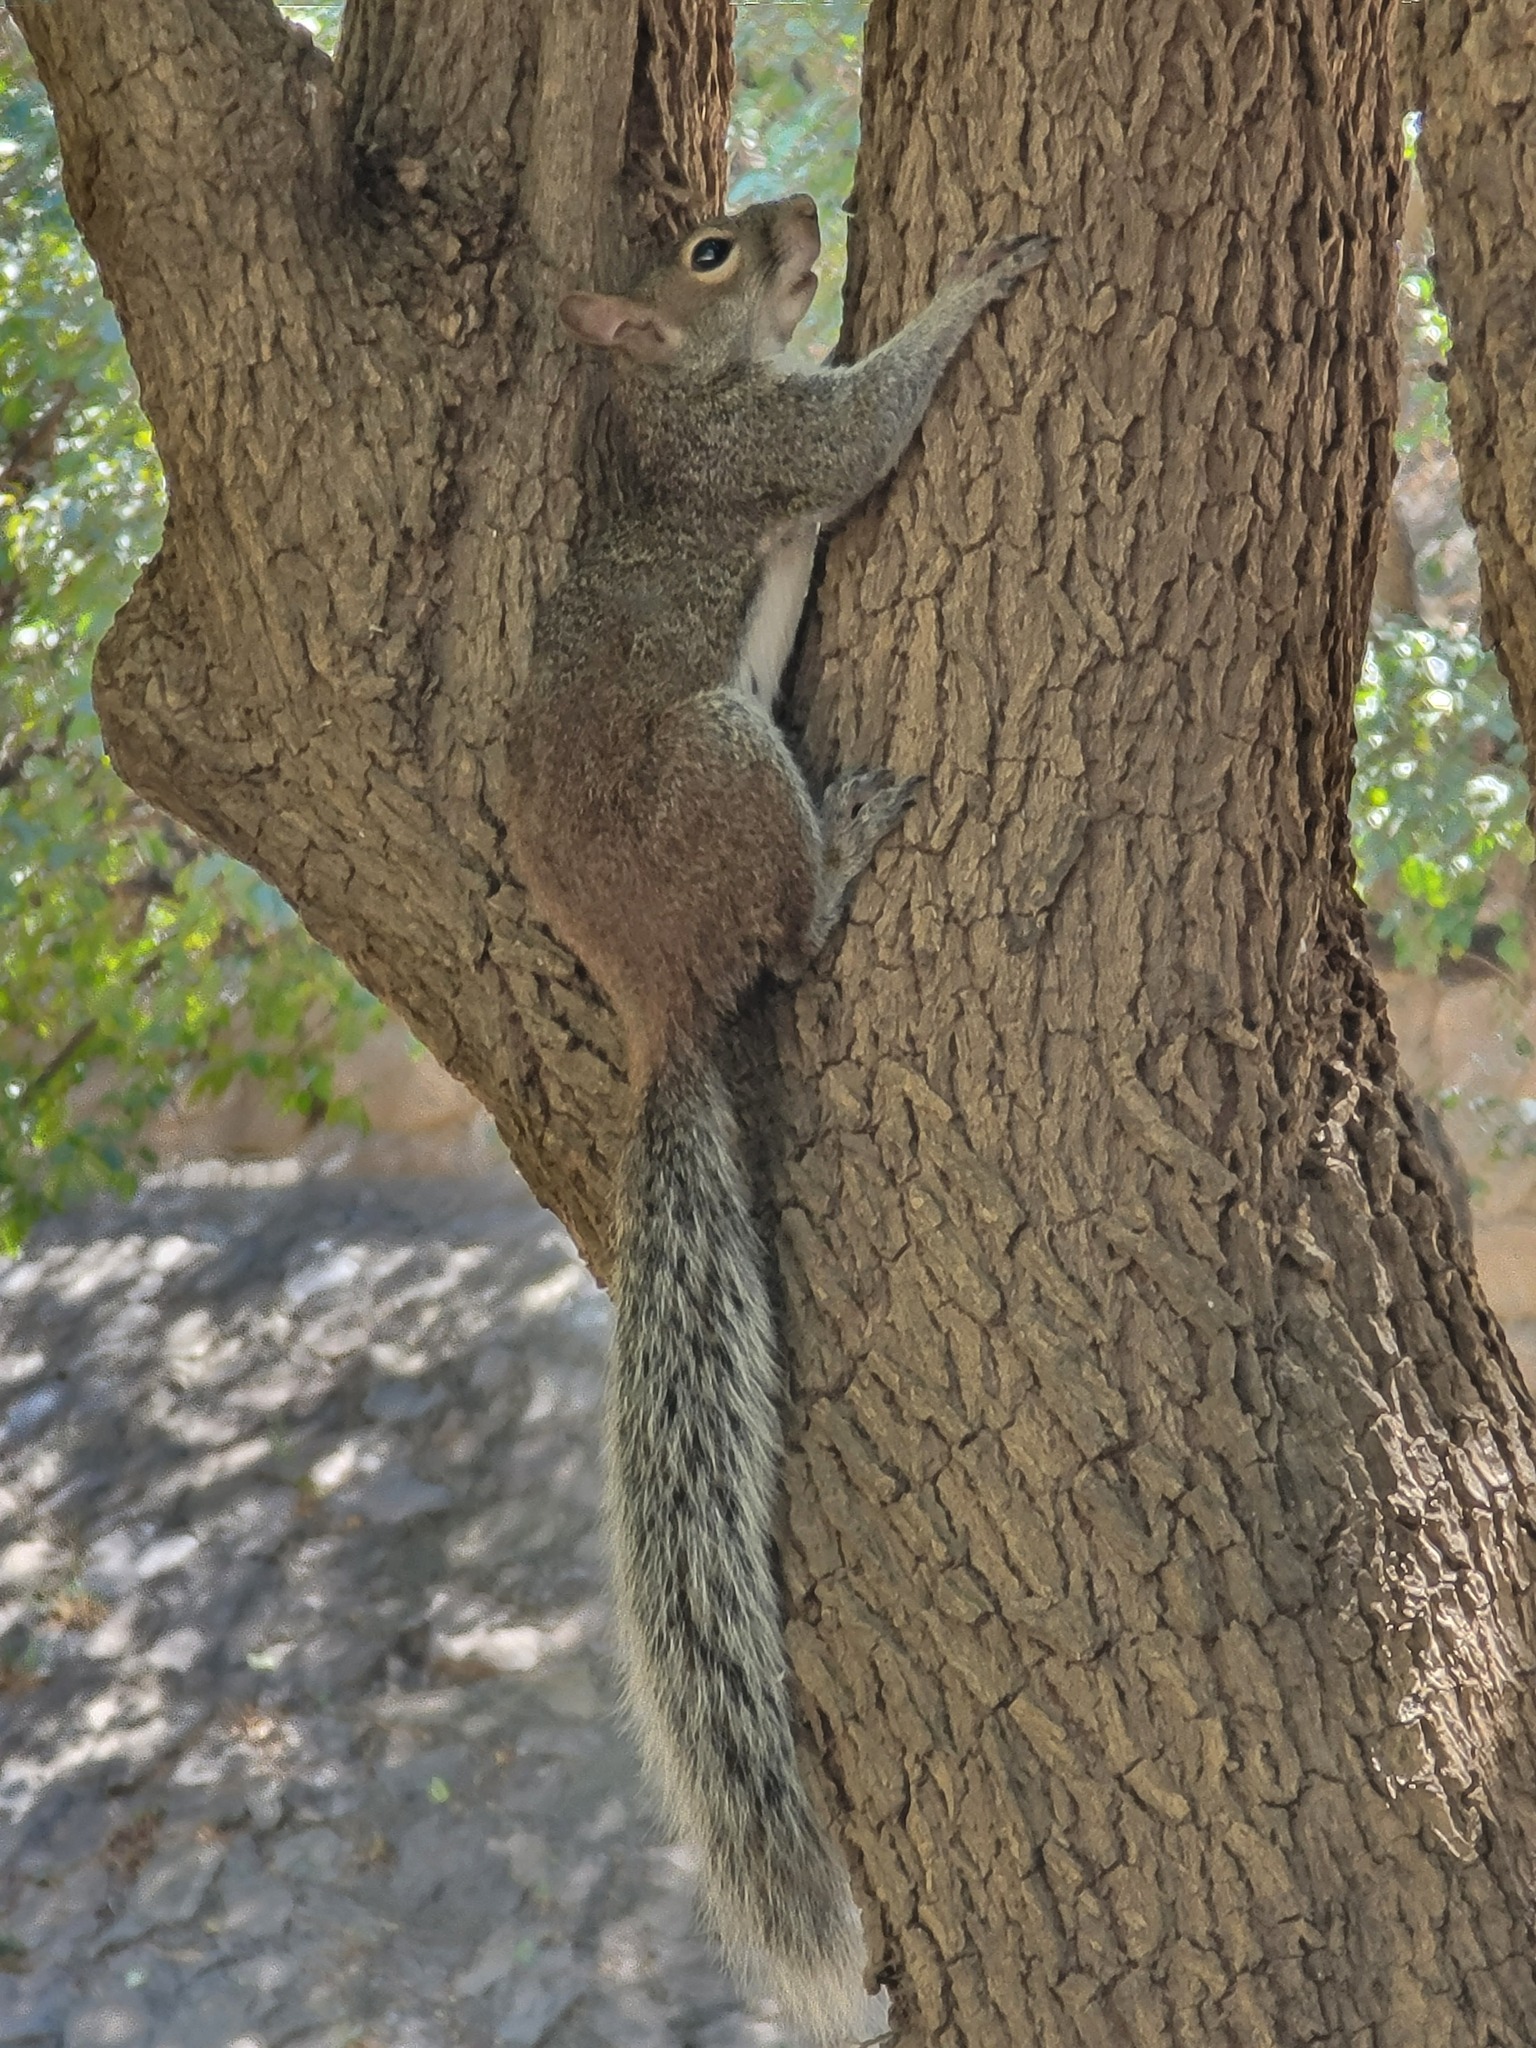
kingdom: Animalia
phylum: Chordata
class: Mammalia
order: Rodentia
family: Sciuridae
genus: Sciurus
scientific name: Sciurus alleni
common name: Allen's squirrel
